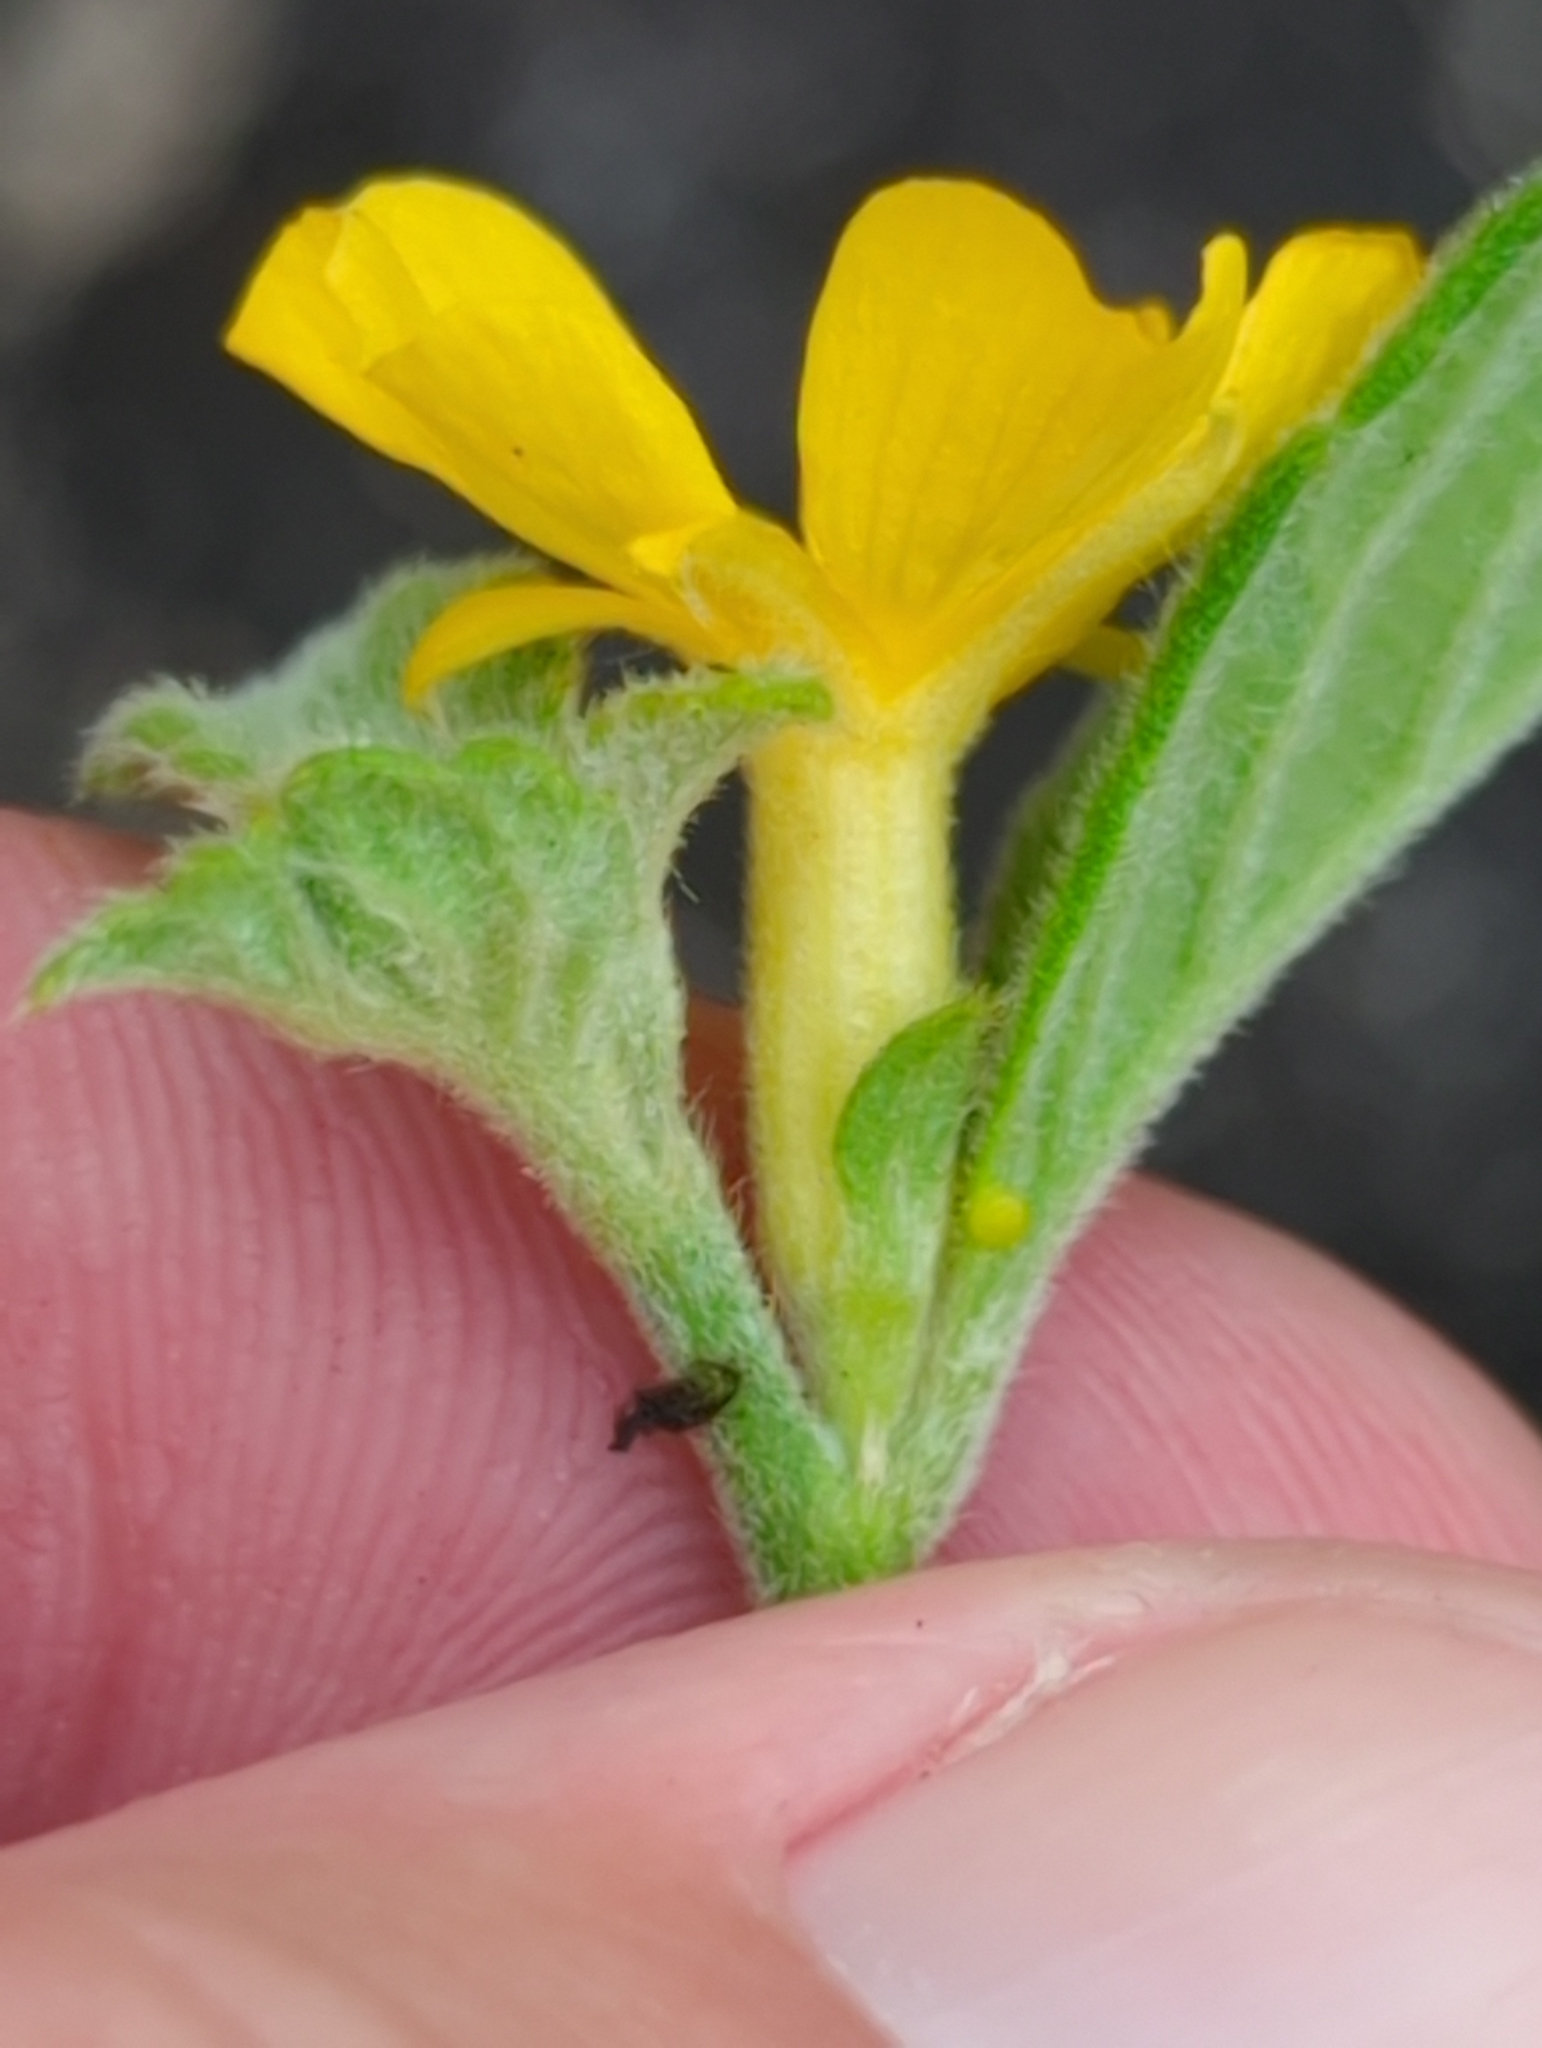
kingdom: Plantae
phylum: Tracheophyta
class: Magnoliopsida
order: Malpighiales
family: Turneraceae
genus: Turnera
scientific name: Turnera ulmifolia
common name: Ramgoat dashalong
